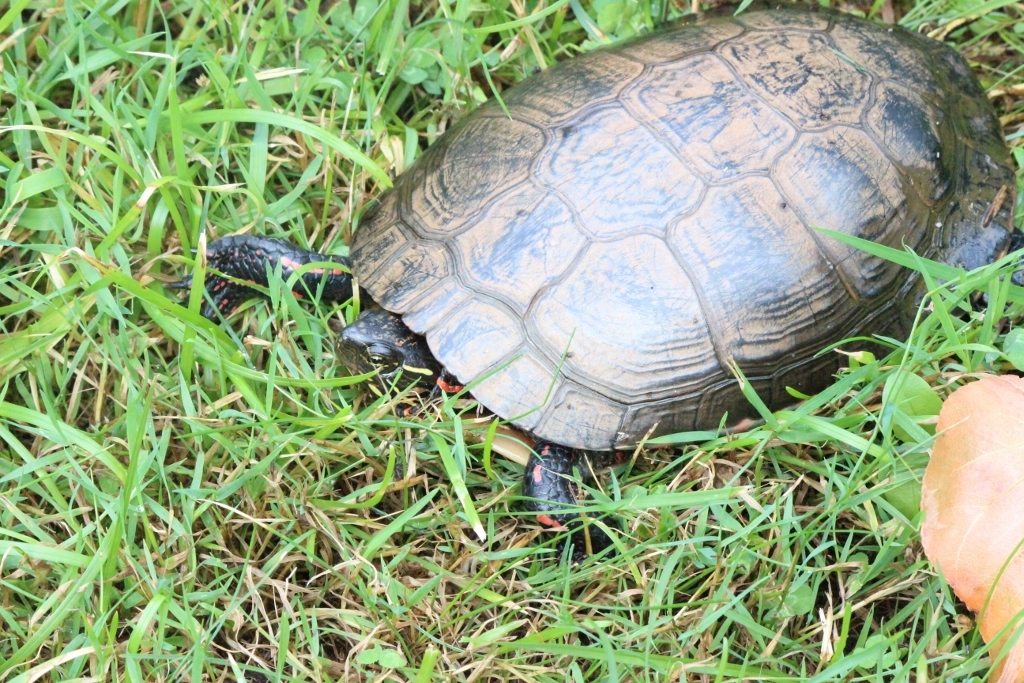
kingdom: Animalia
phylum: Chordata
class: Testudines
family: Emydidae
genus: Chrysemys
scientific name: Chrysemys picta
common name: Painted turtle
